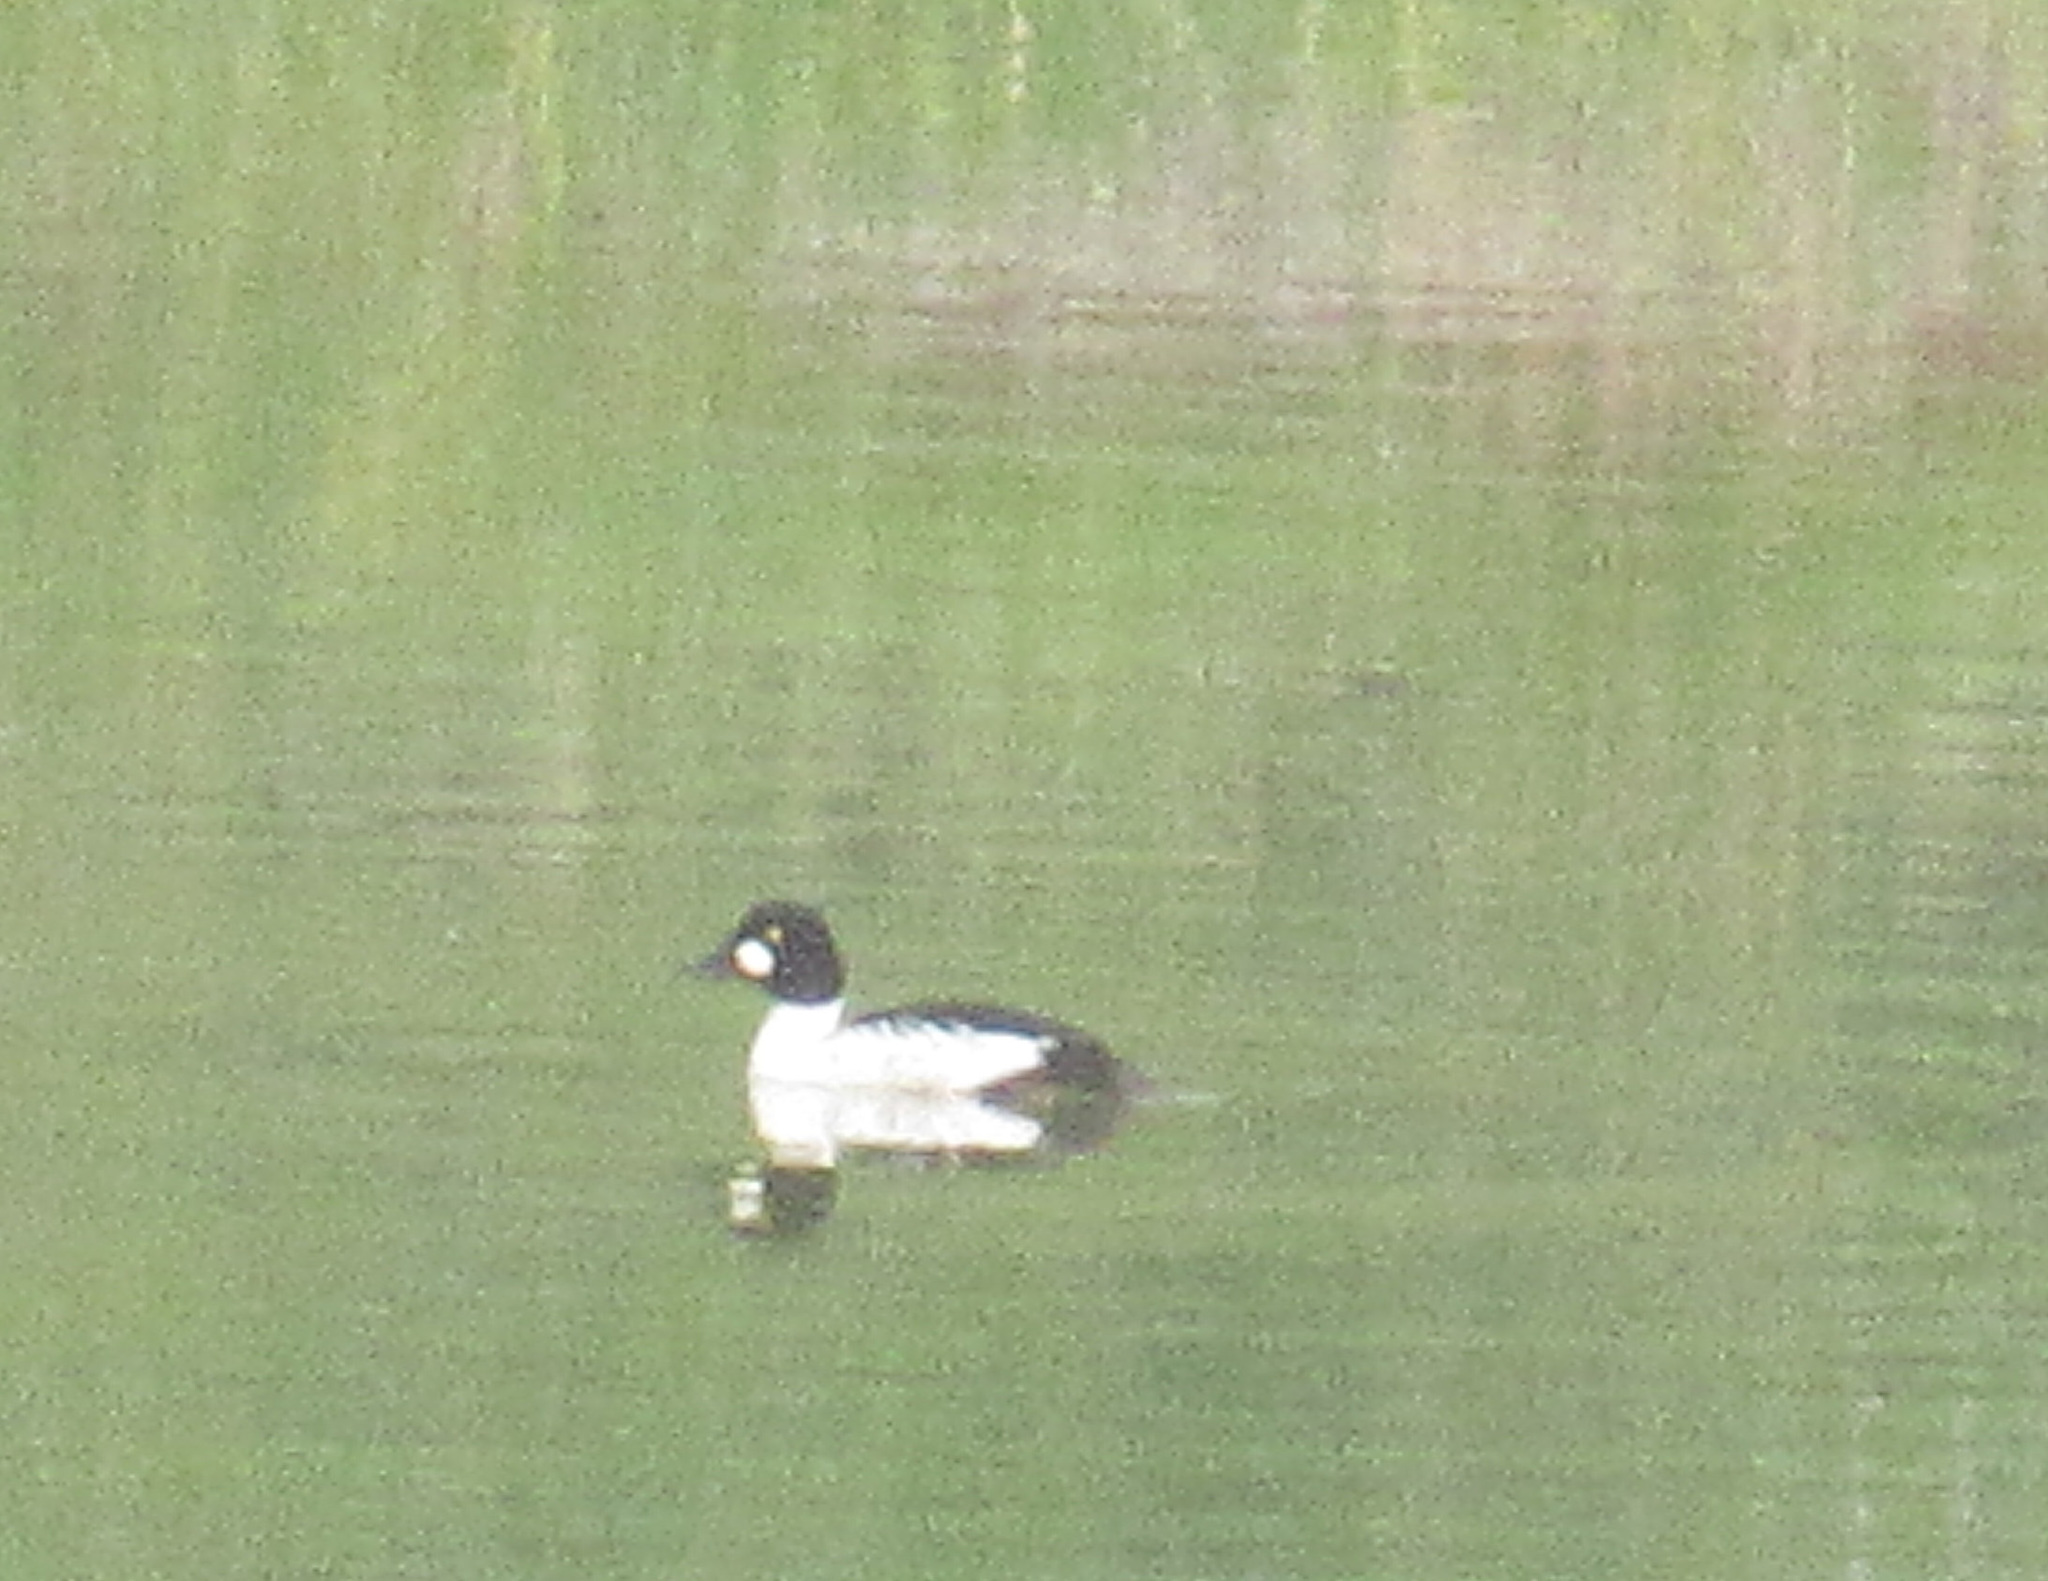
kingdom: Animalia
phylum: Chordata
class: Aves
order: Anseriformes
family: Anatidae
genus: Bucephala
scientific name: Bucephala clangula
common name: Common goldeneye
